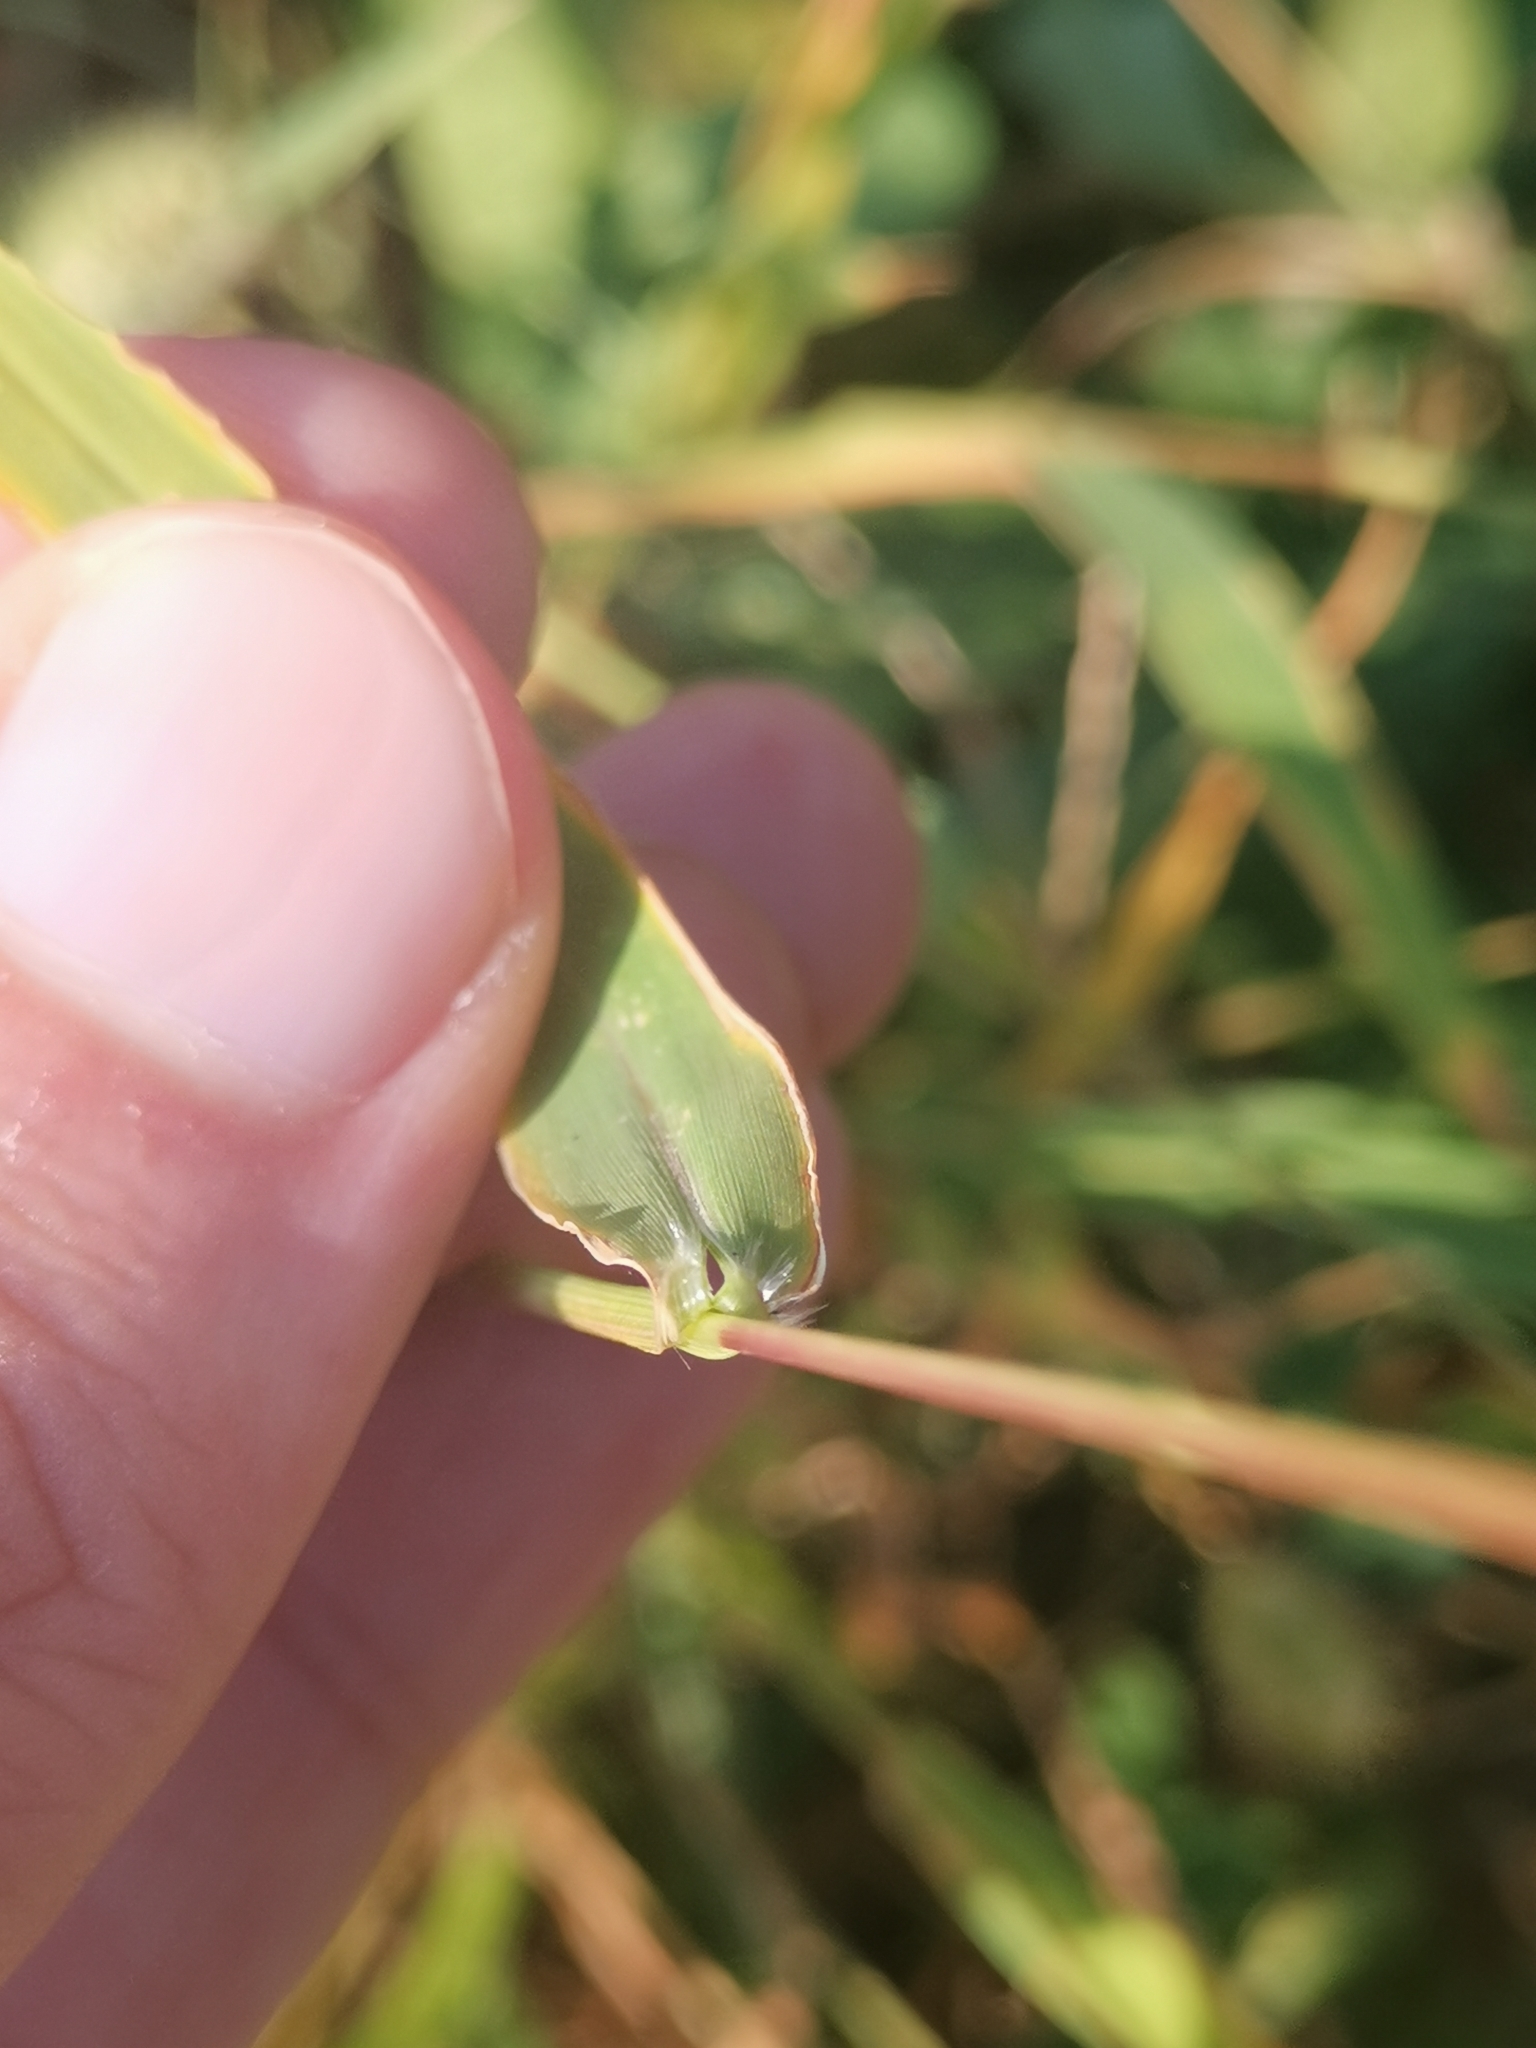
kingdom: Plantae
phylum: Tracheophyta
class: Liliopsida
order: Poales
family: Poaceae
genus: Setaria
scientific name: Setaria viridis
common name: Green bristlegrass
